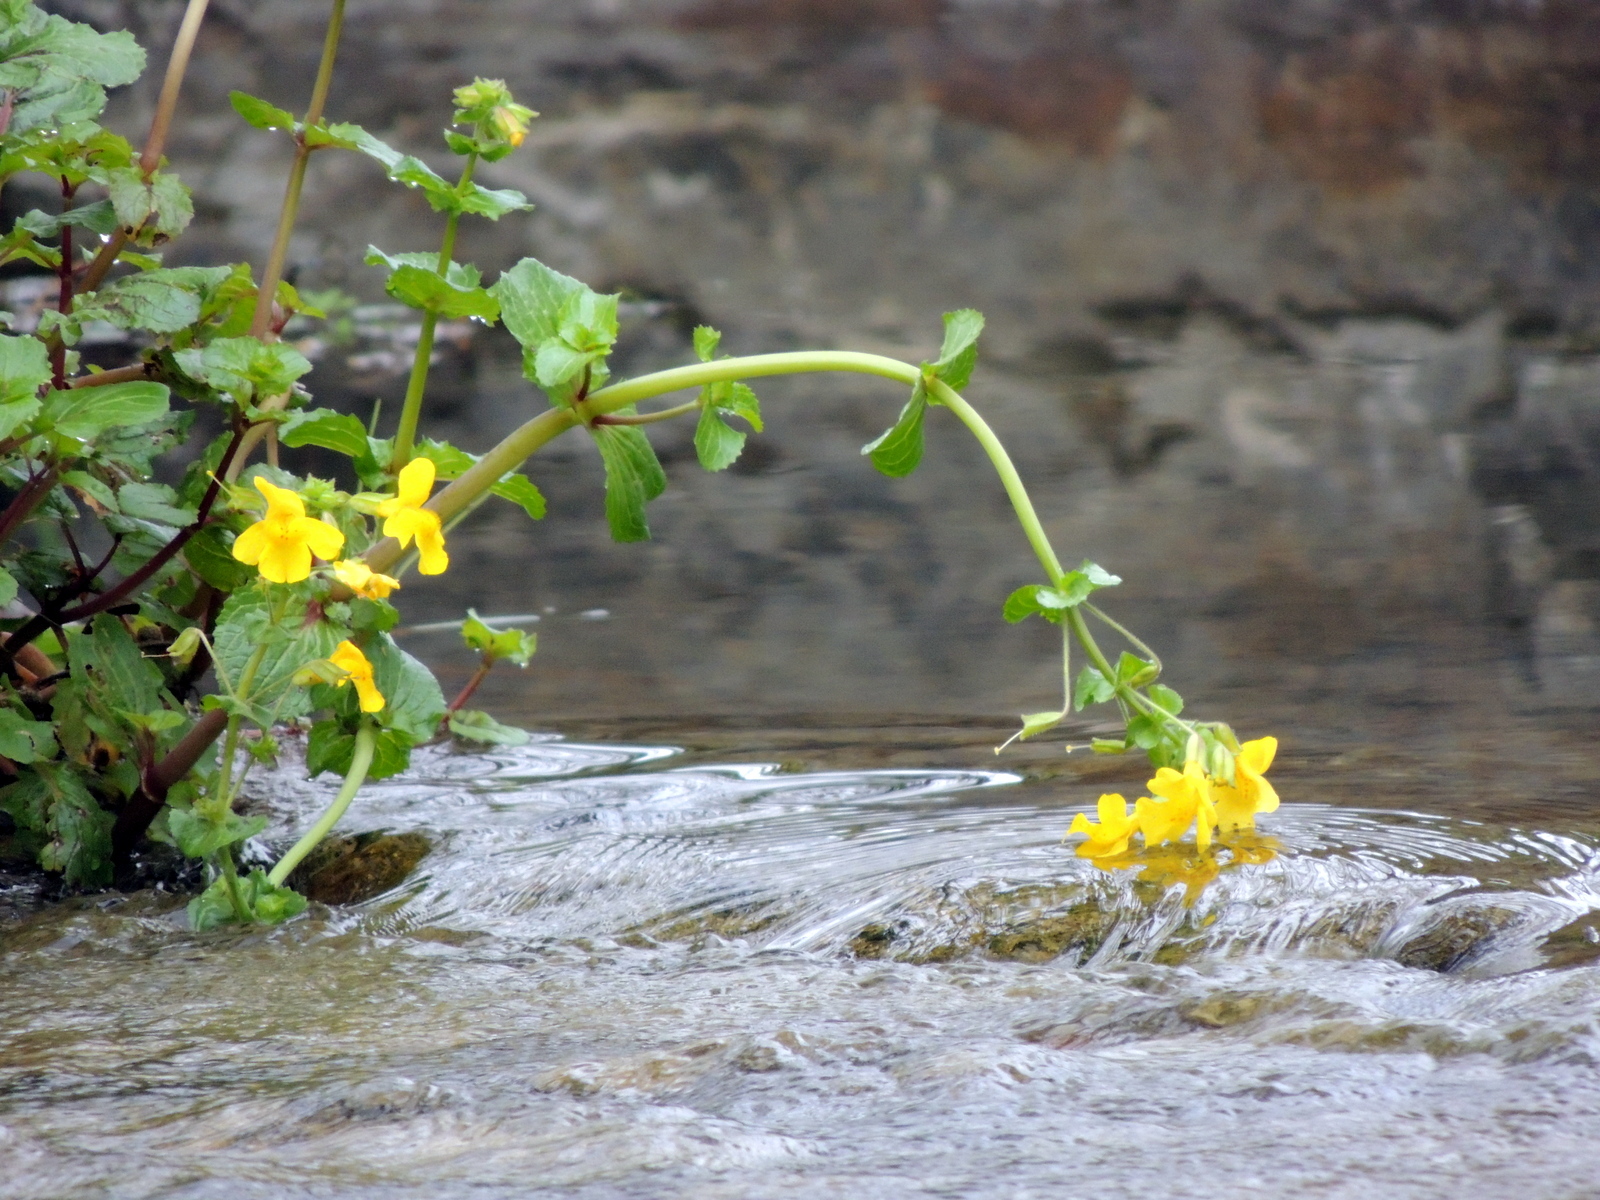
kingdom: Plantae
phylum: Tracheophyta
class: Magnoliopsida
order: Lamiales
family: Phrymaceae
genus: Erythranthe
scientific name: Erythranthe guttata
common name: Monkeyflower
